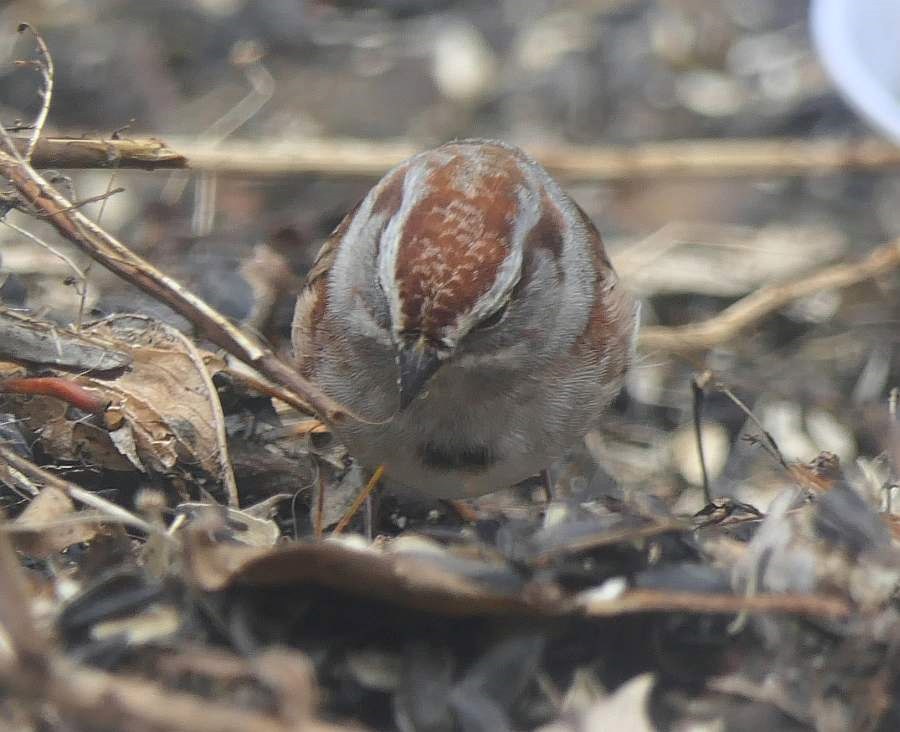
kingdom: Animalia
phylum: Chordata
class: Aves
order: Passeriformes
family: Passerellidae
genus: Spizelloides
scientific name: Spizelloides arborea
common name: American tree sparrow
